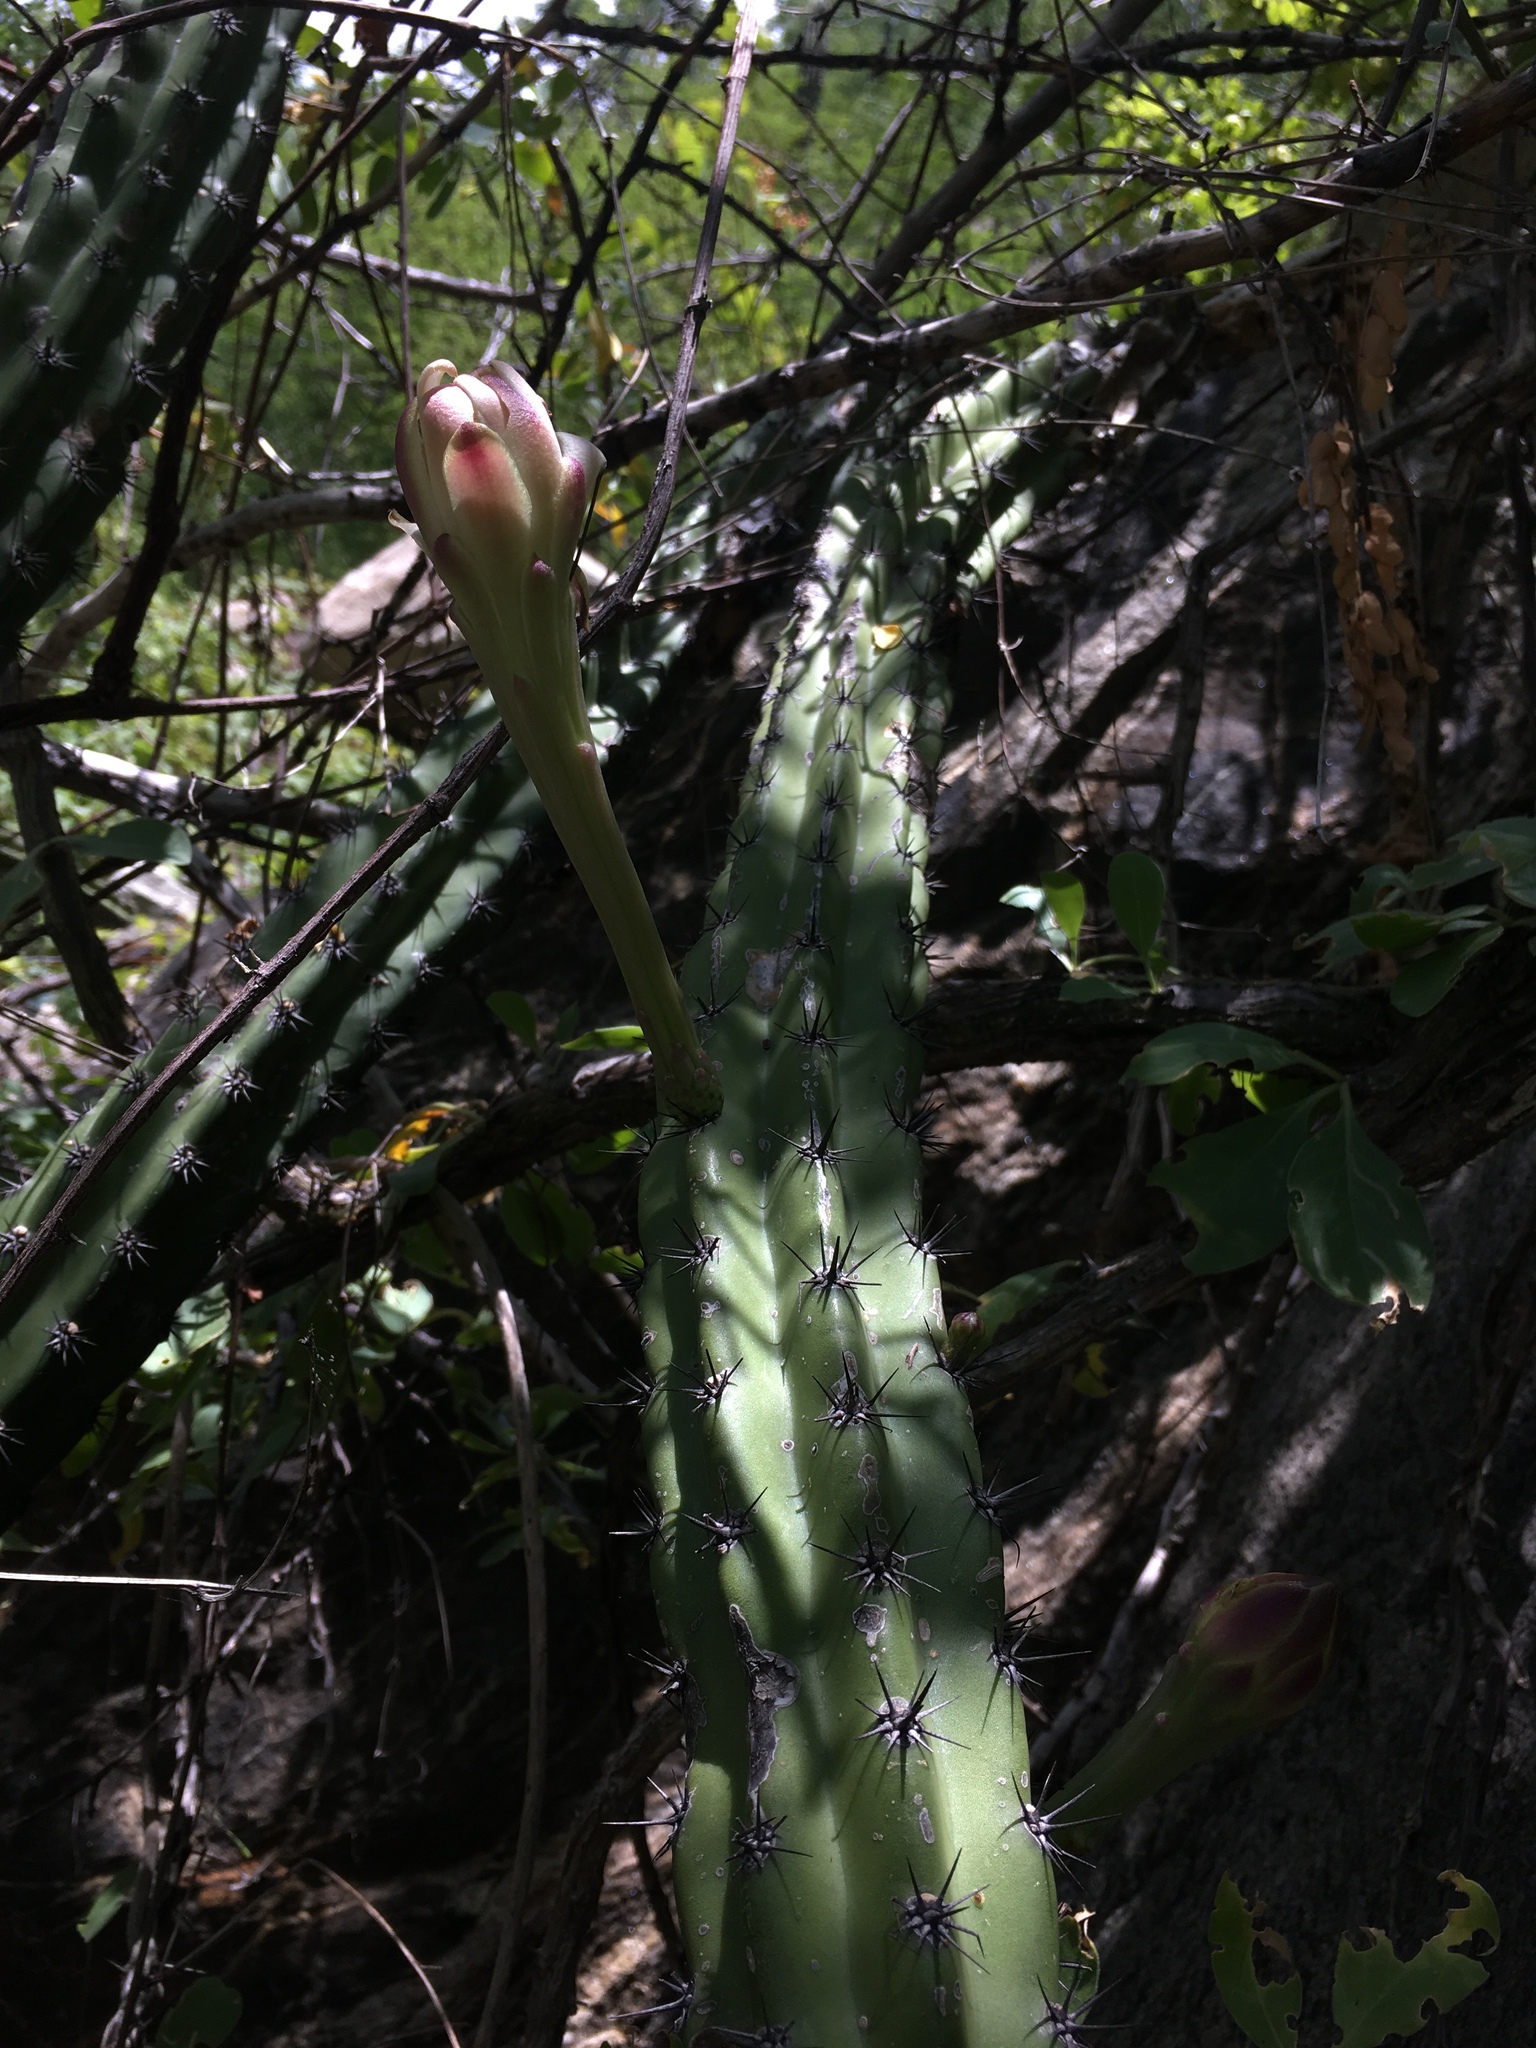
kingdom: Plantae
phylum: Tracheophyta
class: Magnoliopsida
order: Caryophyllales
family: Cactaceae
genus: Stenocereus
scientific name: Stenocereus gummosus
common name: Dagger cactus
